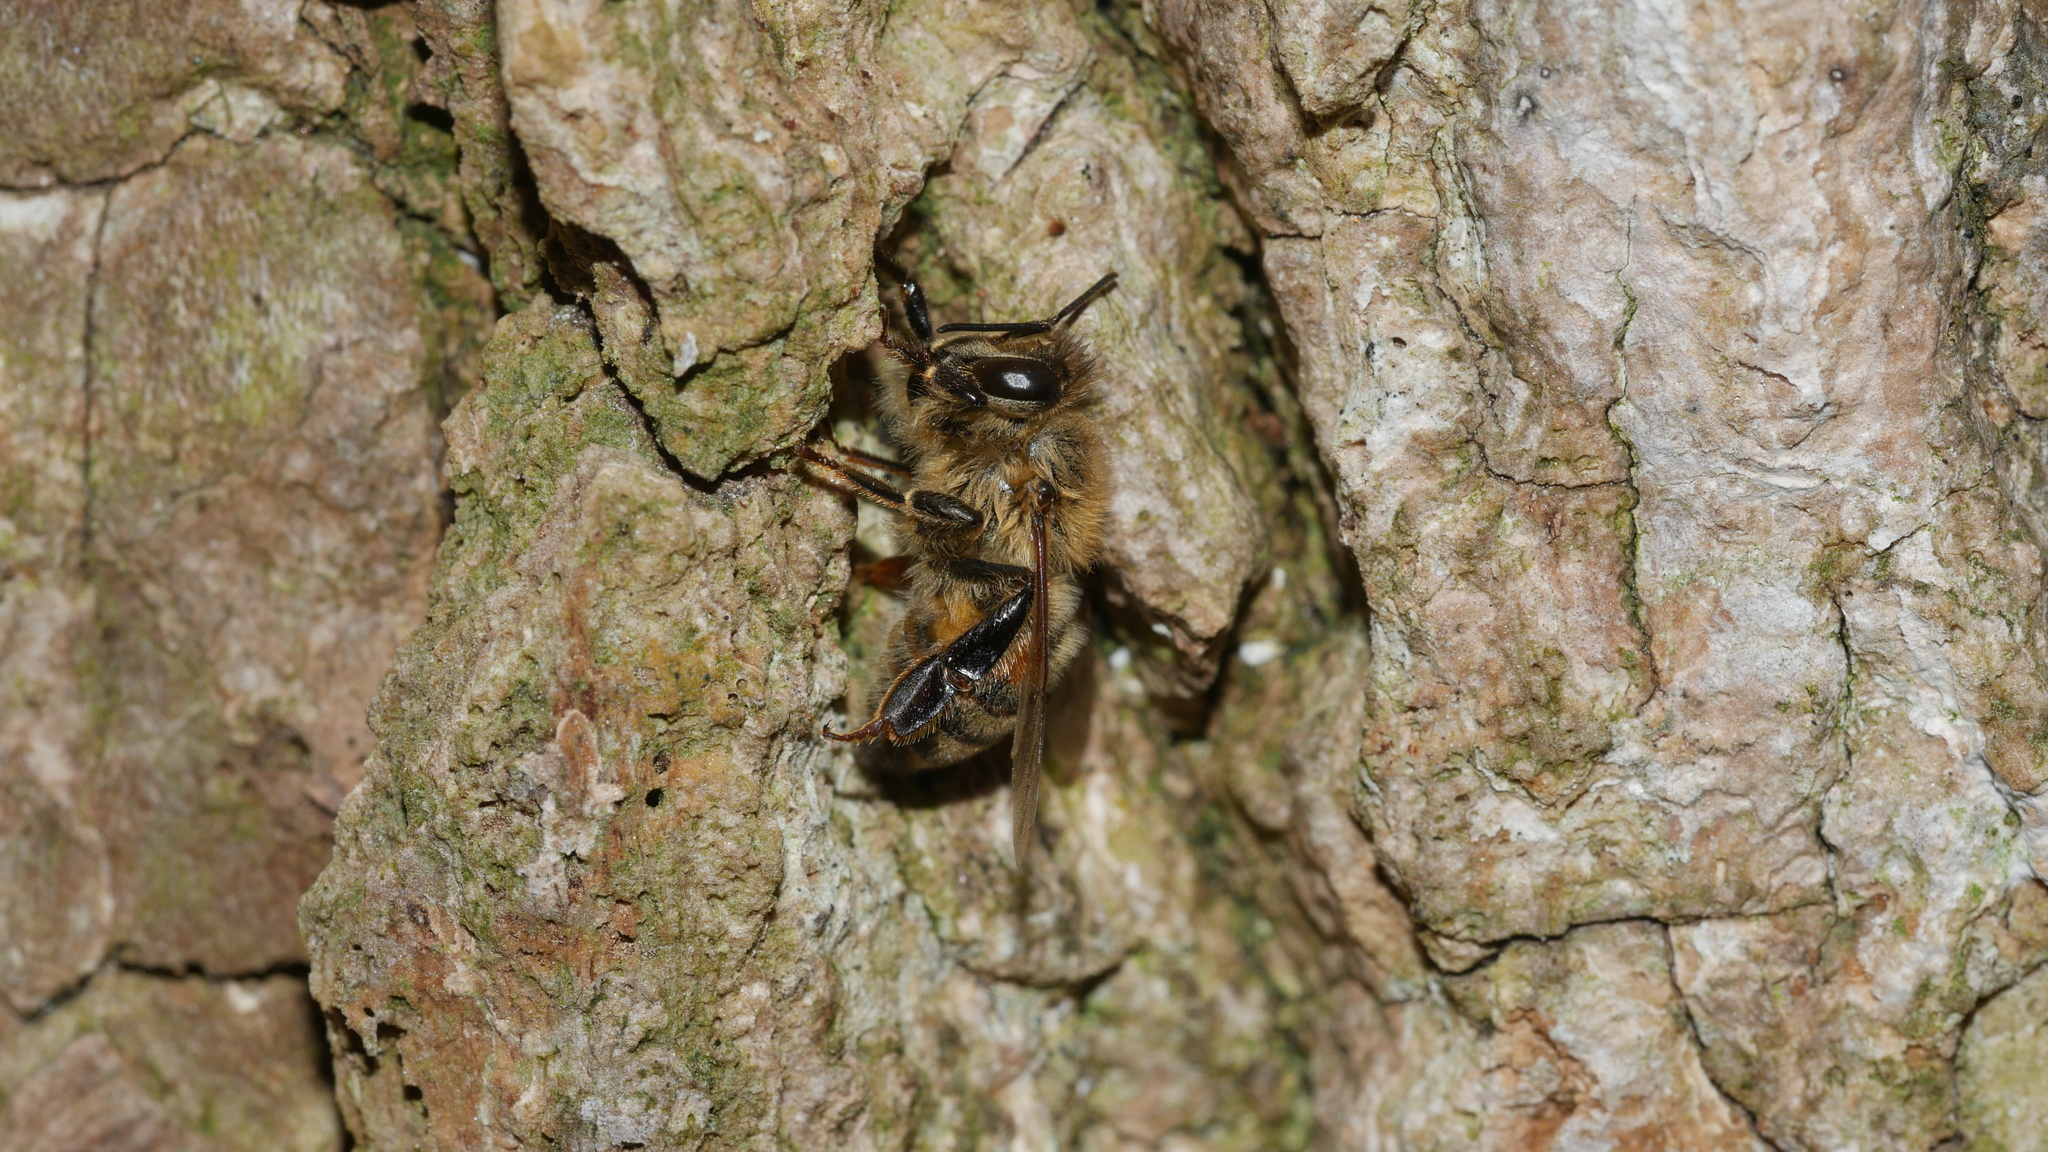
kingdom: Animalia
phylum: Arthropoda
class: Insecta
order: Hymenoptera
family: Apidae
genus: Apis
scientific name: Apis mellifera
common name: Honey bee
